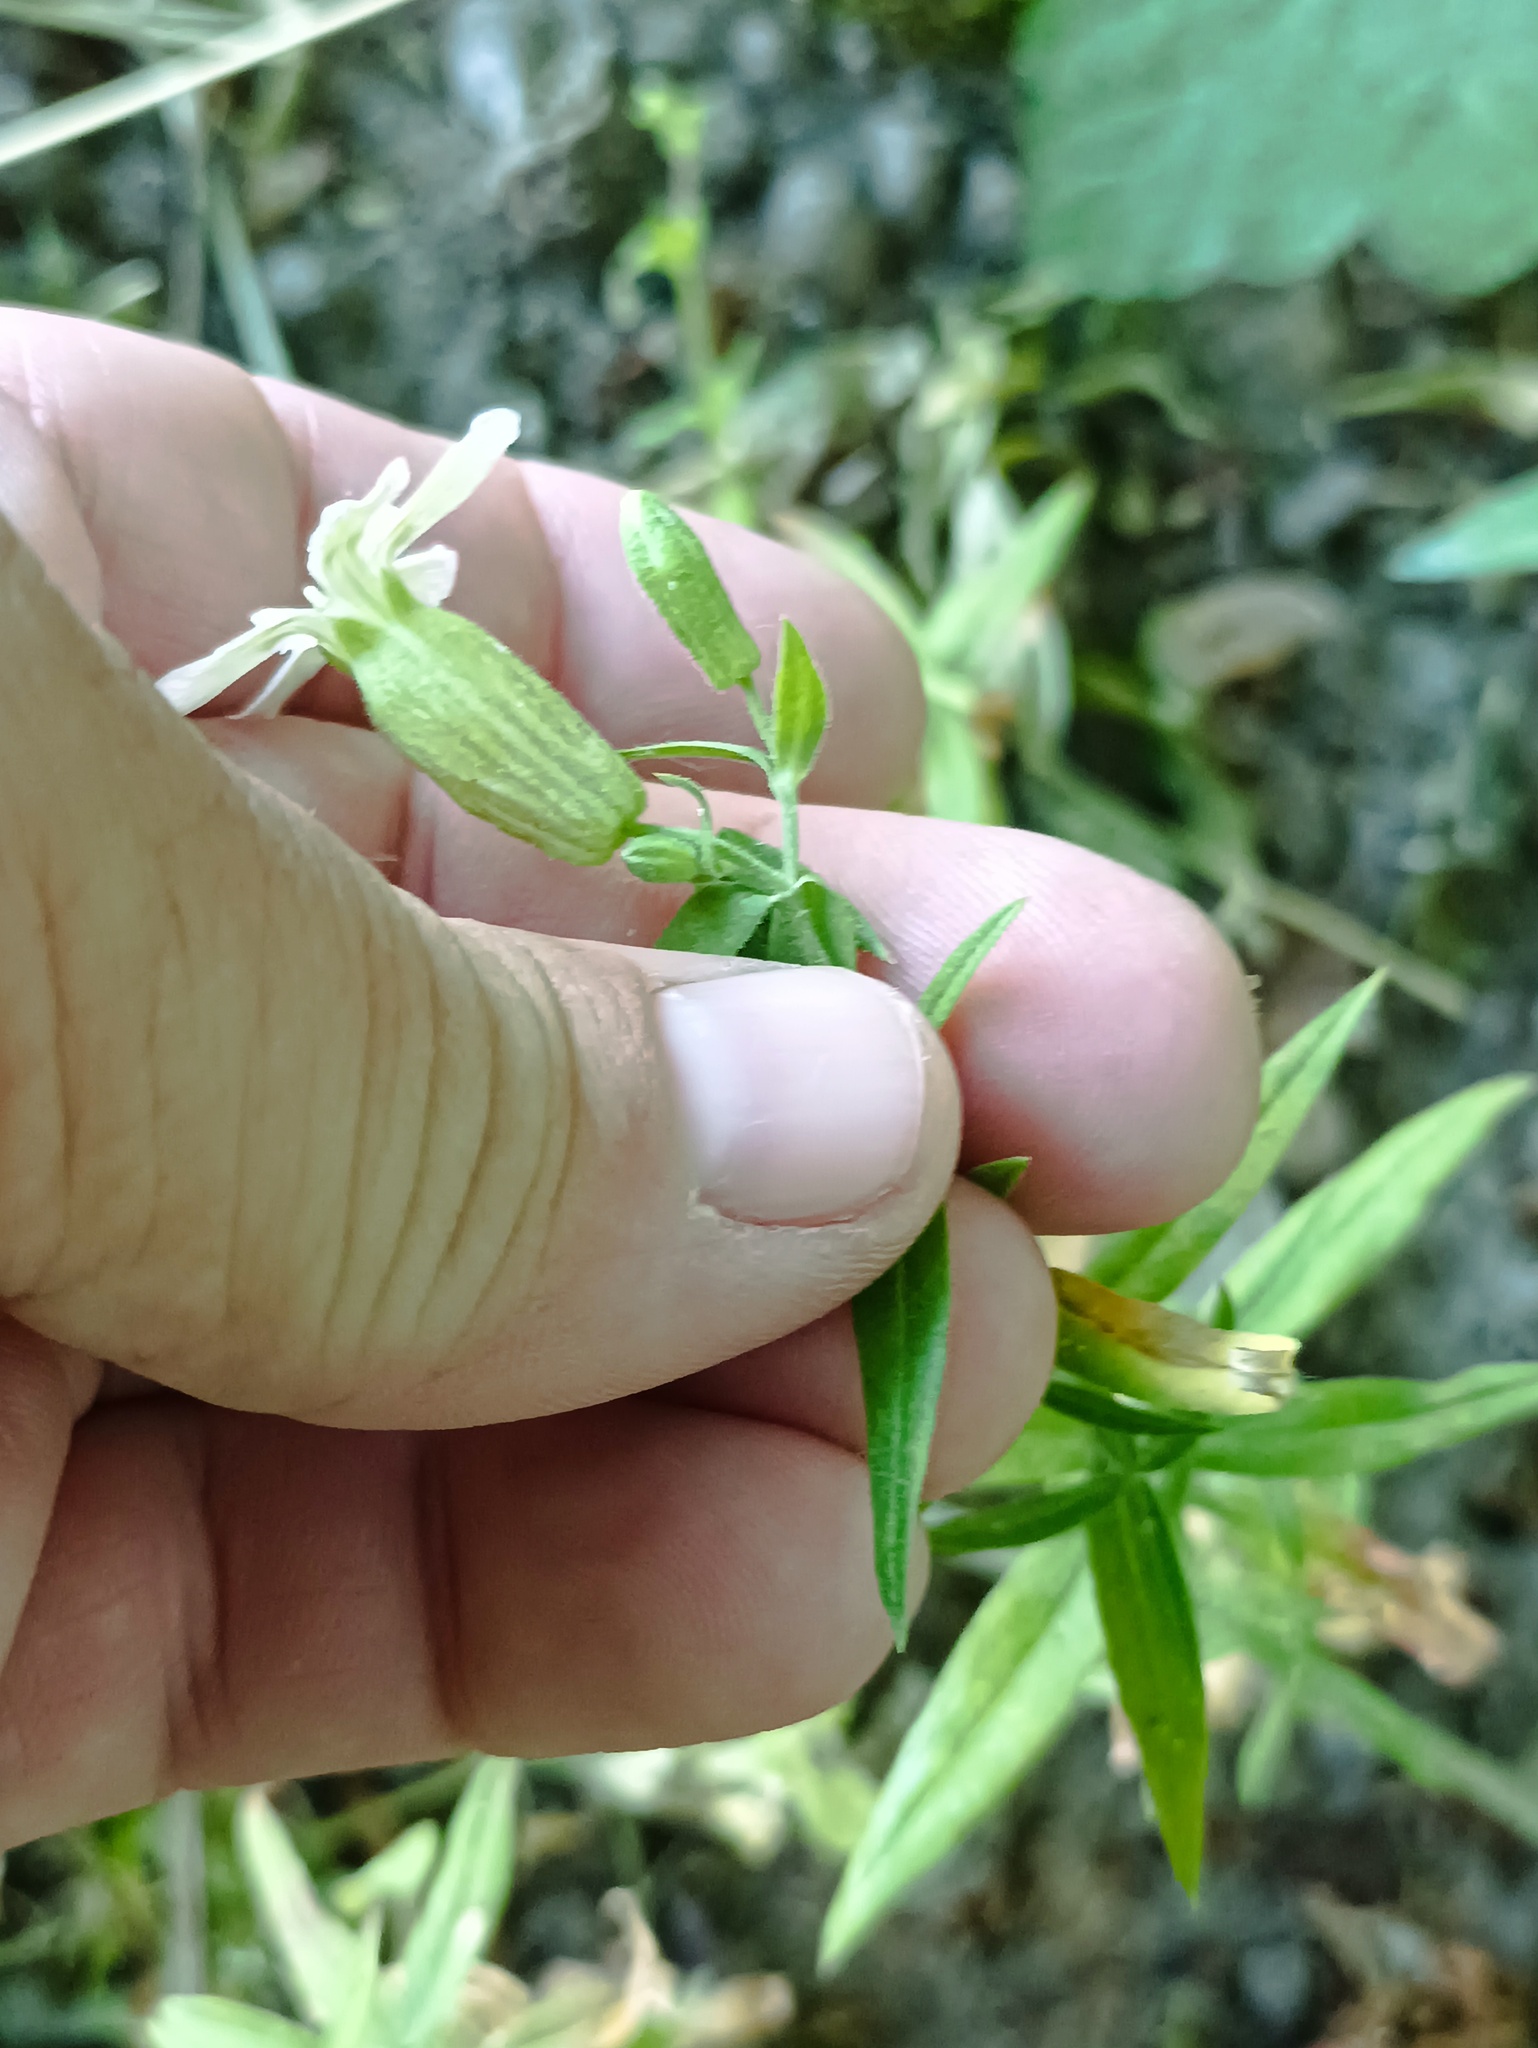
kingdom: Plantae
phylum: Tracheophyta
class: Magnoliopsida
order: Caryophyllales
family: Caryophyllaceae
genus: Silene
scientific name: Silene procumbens
